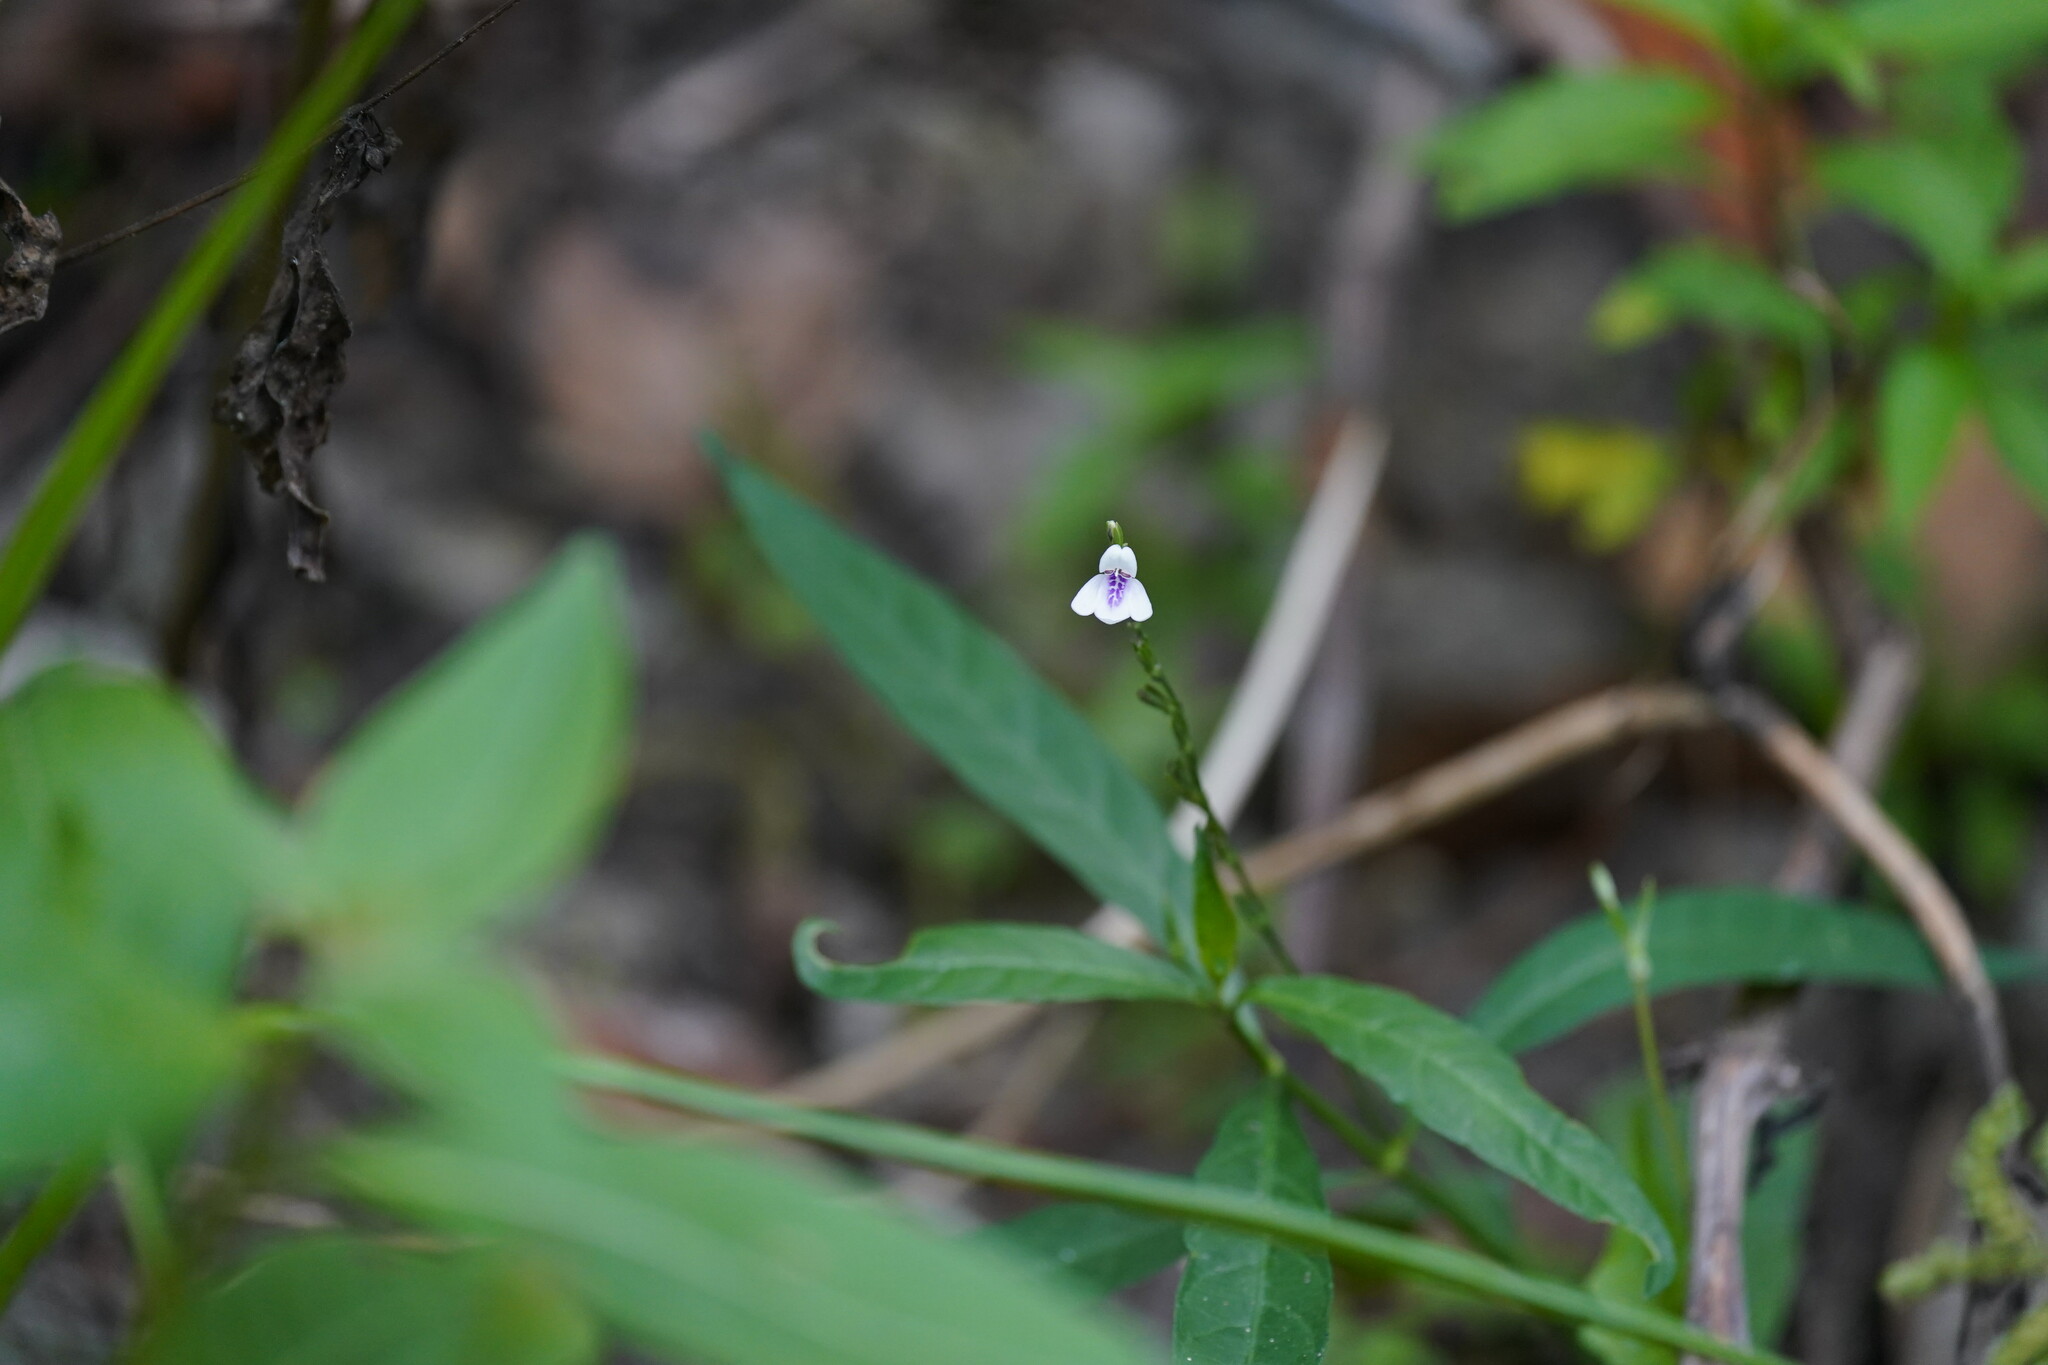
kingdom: Plantae
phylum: Tracheophyta
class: Magnoliopsida
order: Lamiales
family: Acanthaceae
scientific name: Acanthaceae
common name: Acanthaceae
